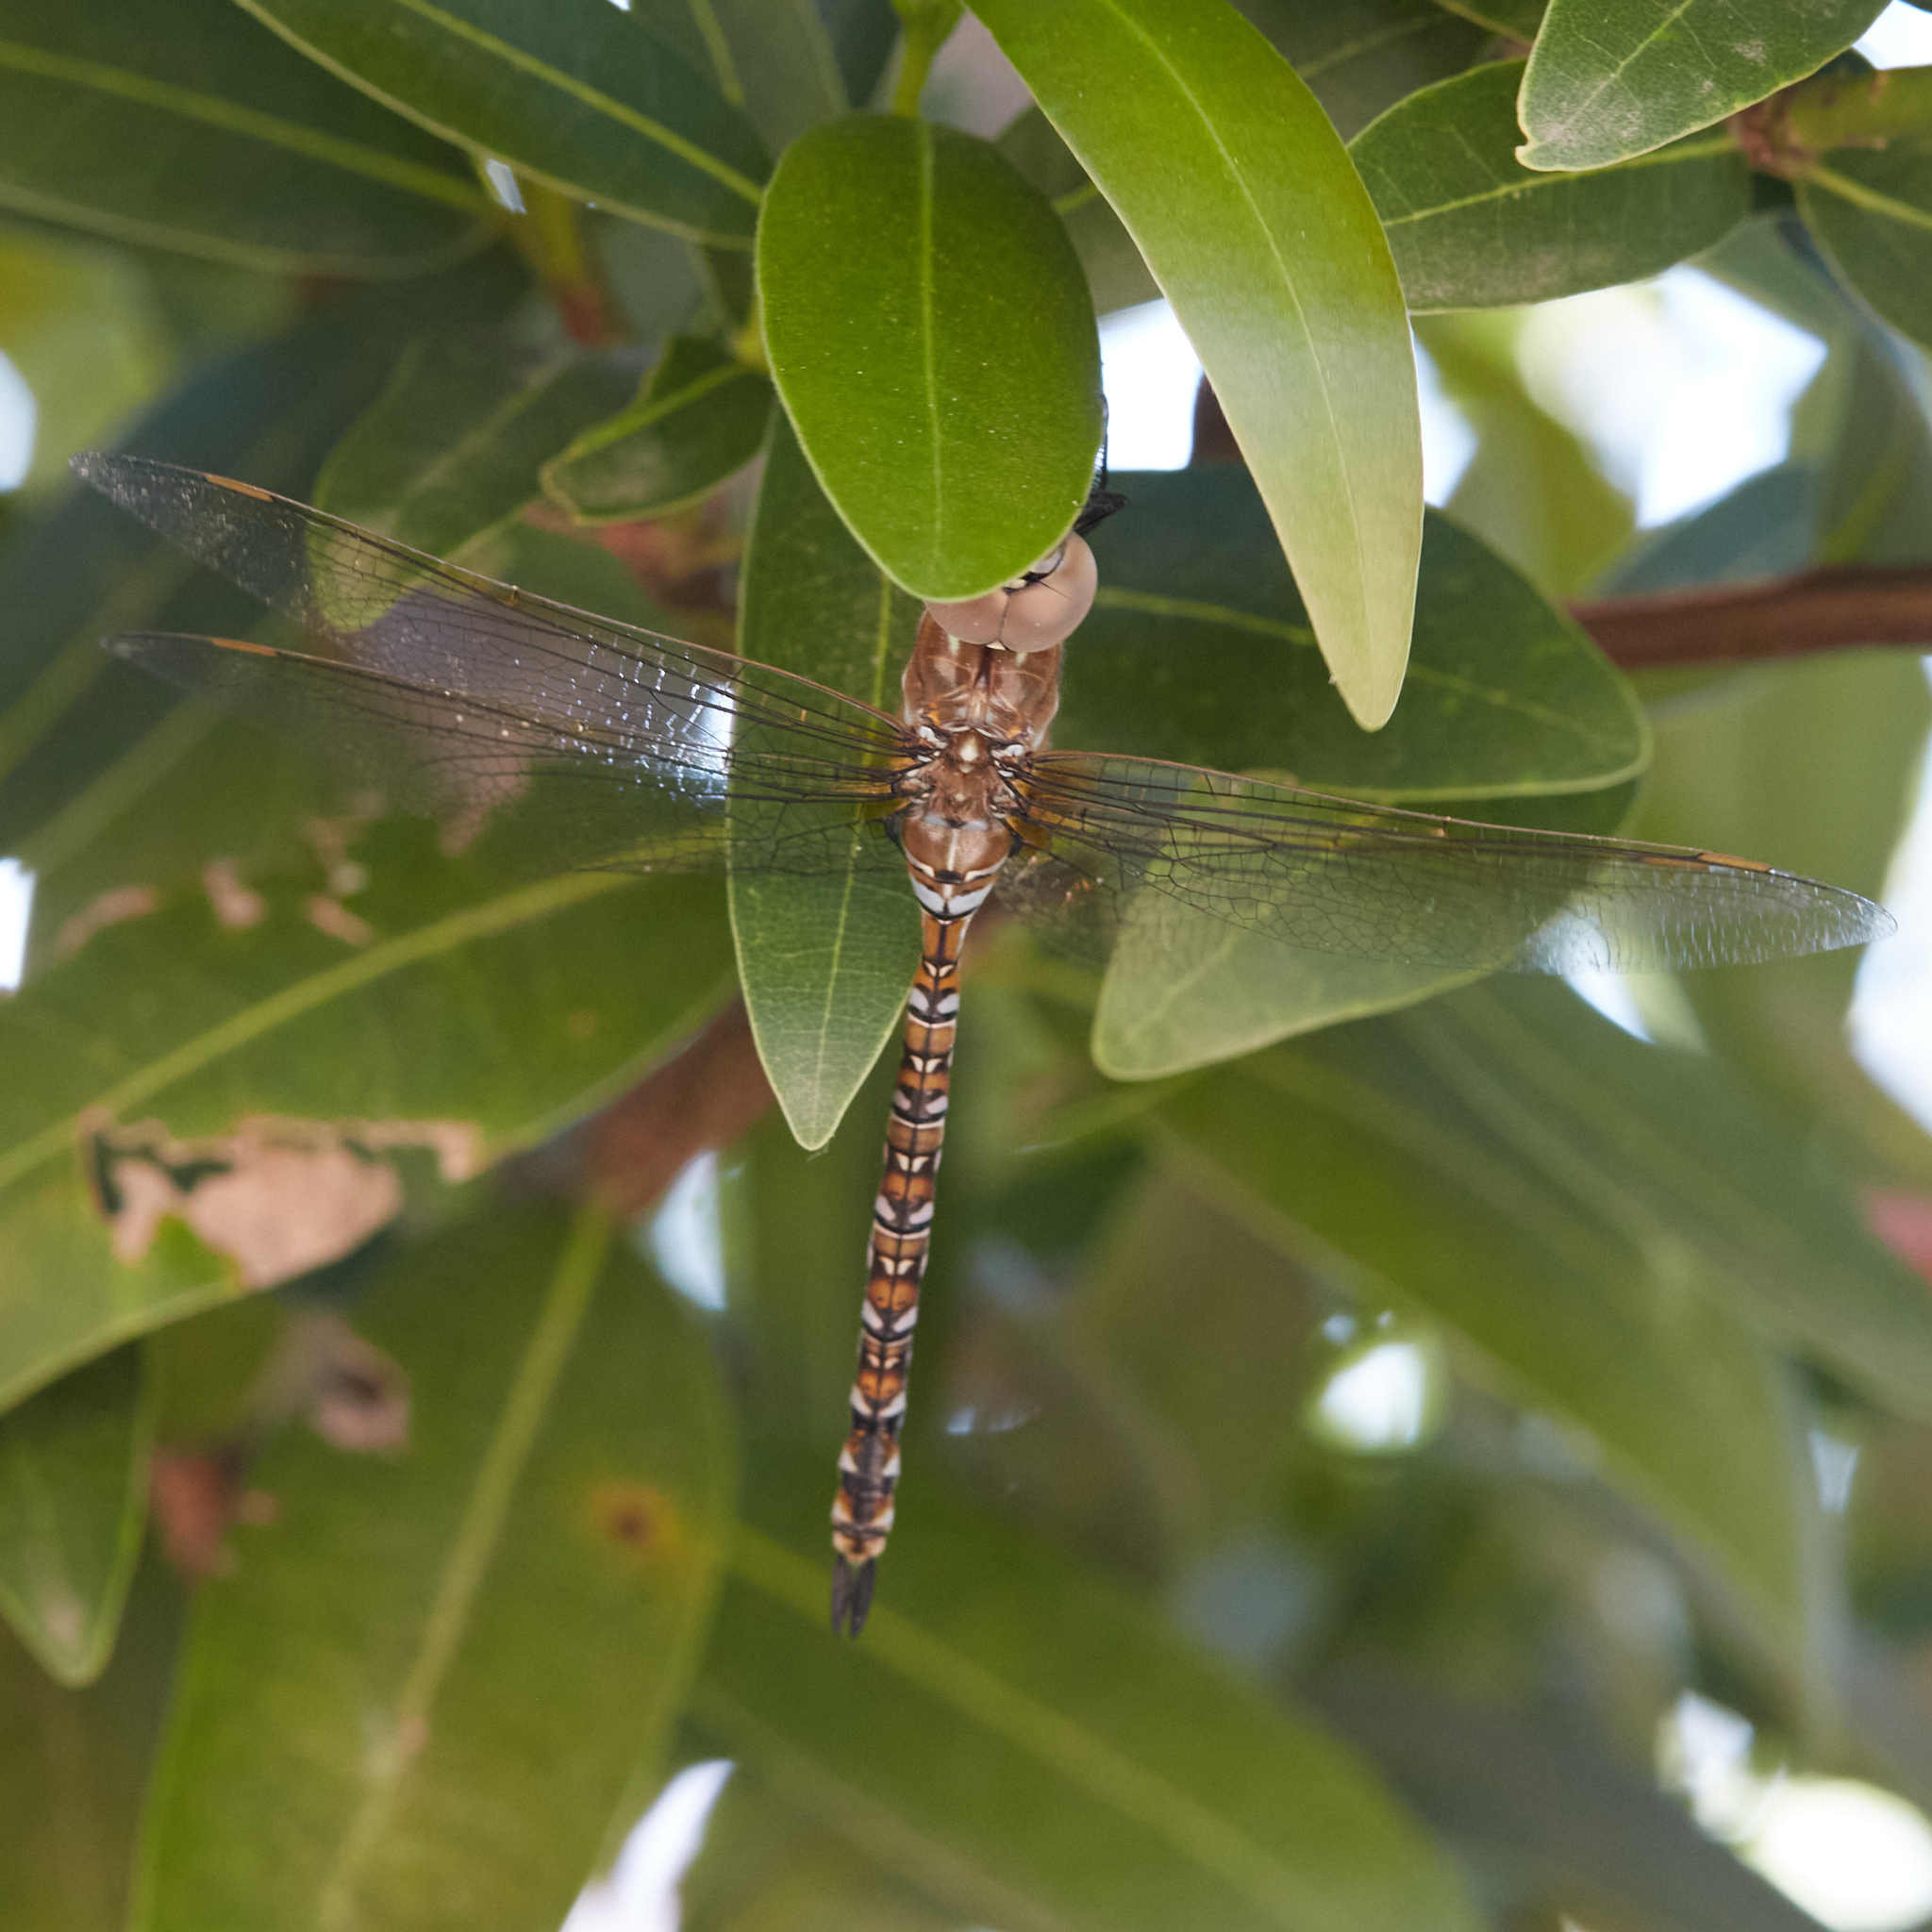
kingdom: Animalia
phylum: Arthropoda
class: Insecta
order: Odonata
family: Aeshnidae
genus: Rhionaeschna
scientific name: Rhionaeschna multicolor
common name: Blue-eyed darner
